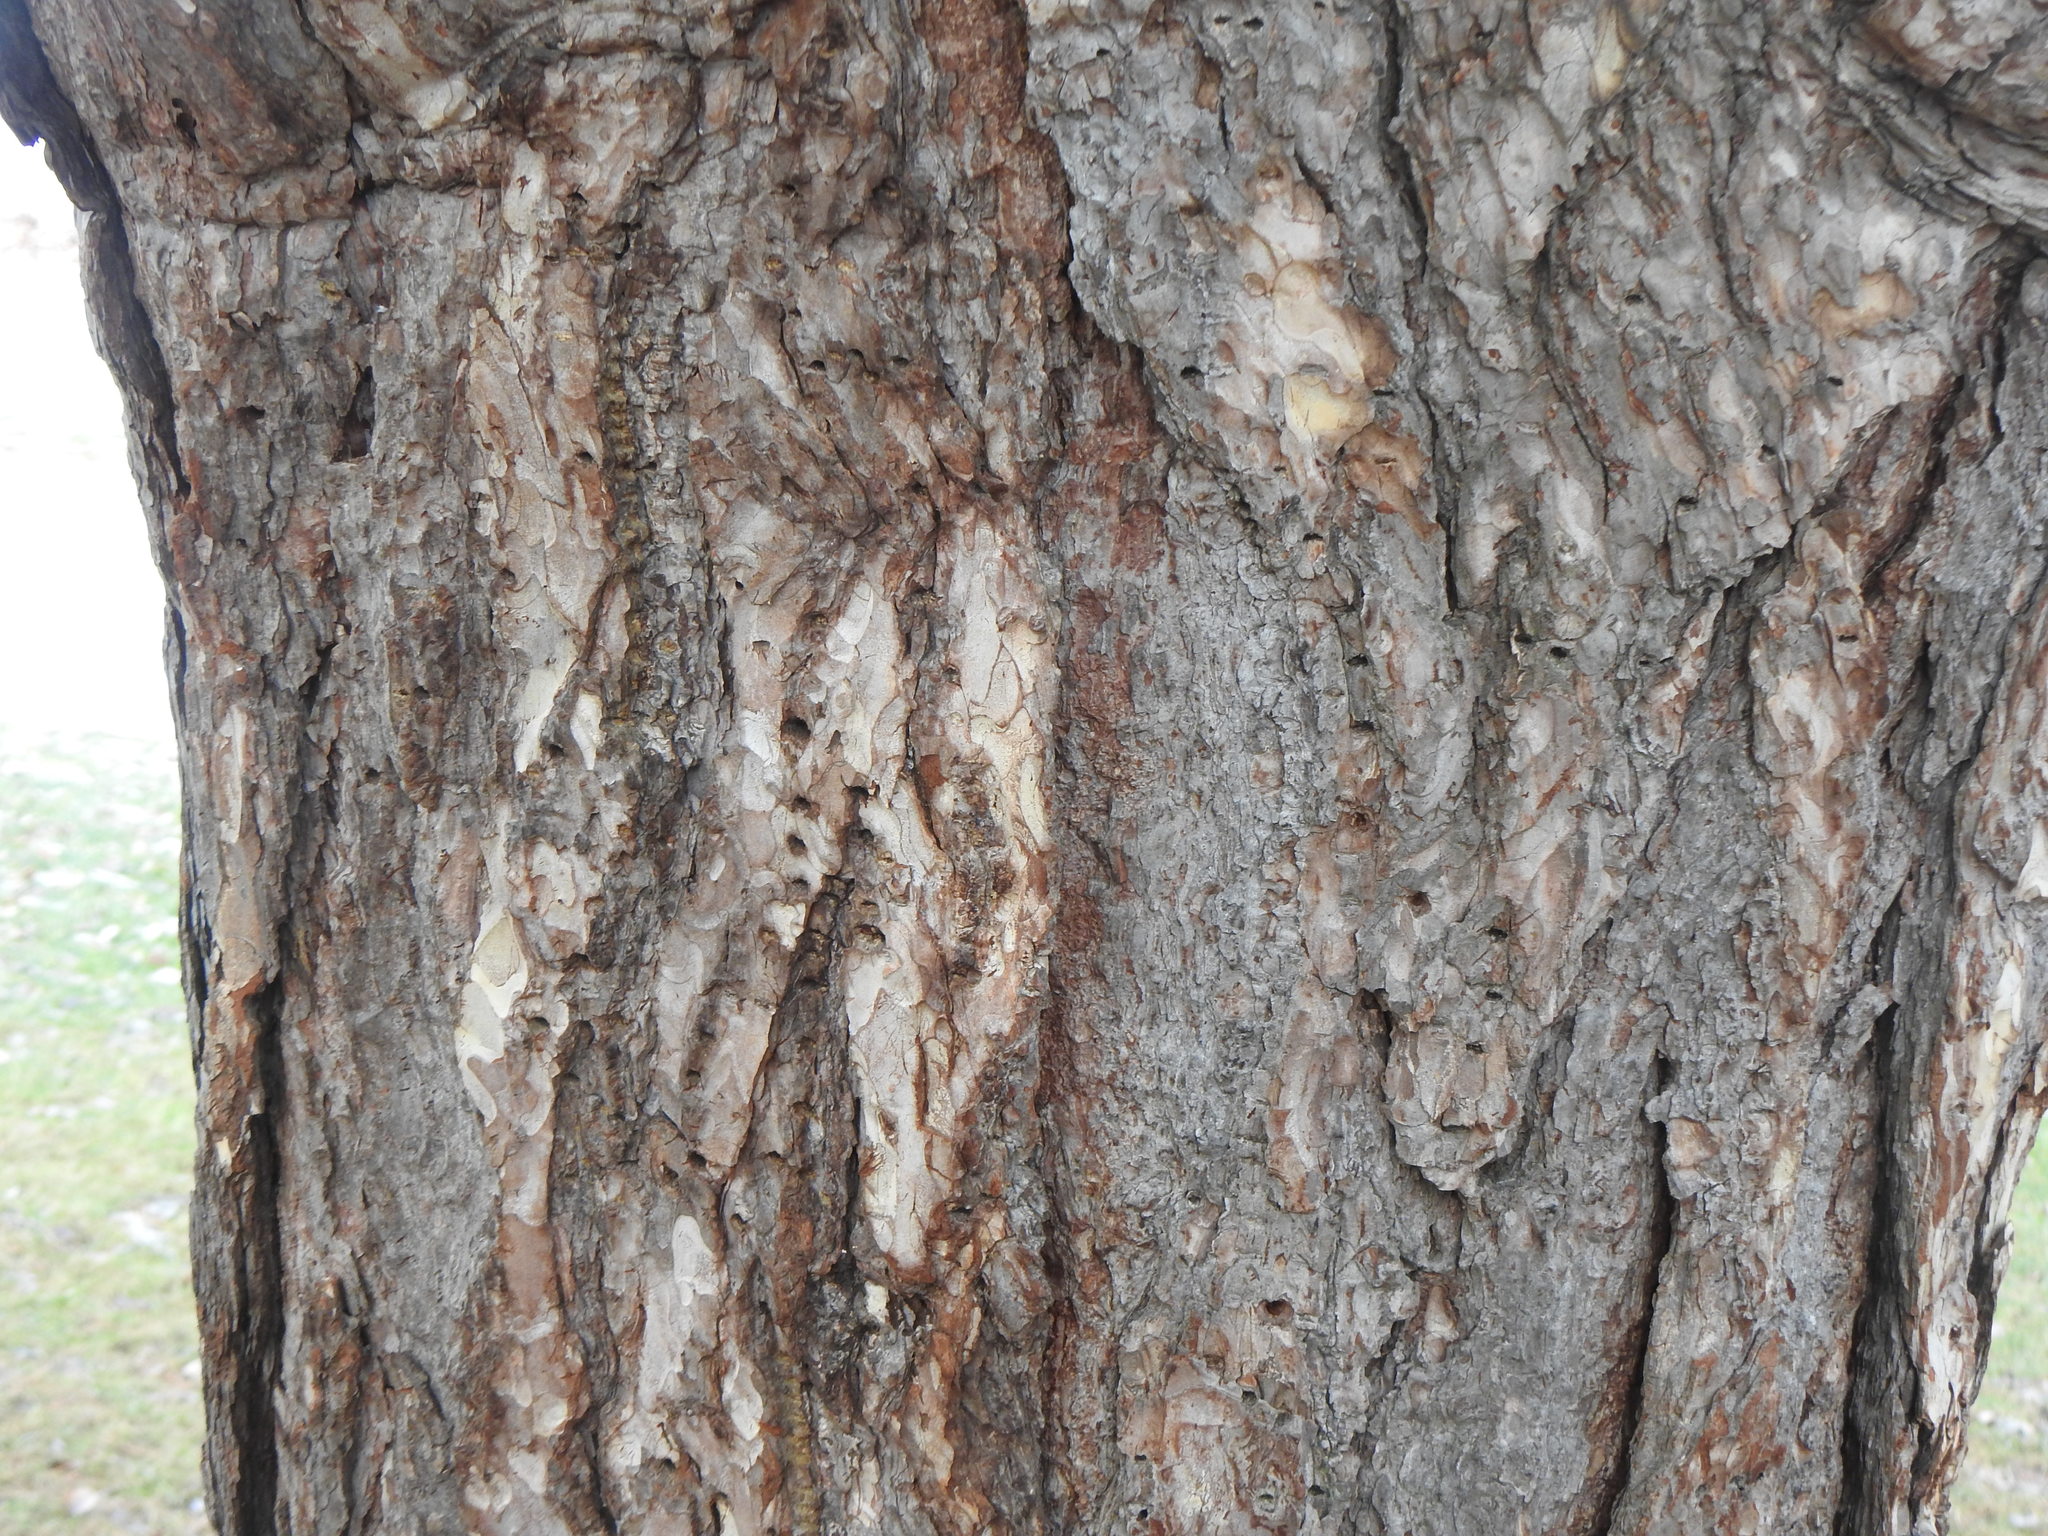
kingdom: Animalia
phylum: Chordata
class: Aves
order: Piciformes
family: Picidae
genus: Sphyrapicus
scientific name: Sphyrapicus varius
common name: Yellow-bellied sapsucker
